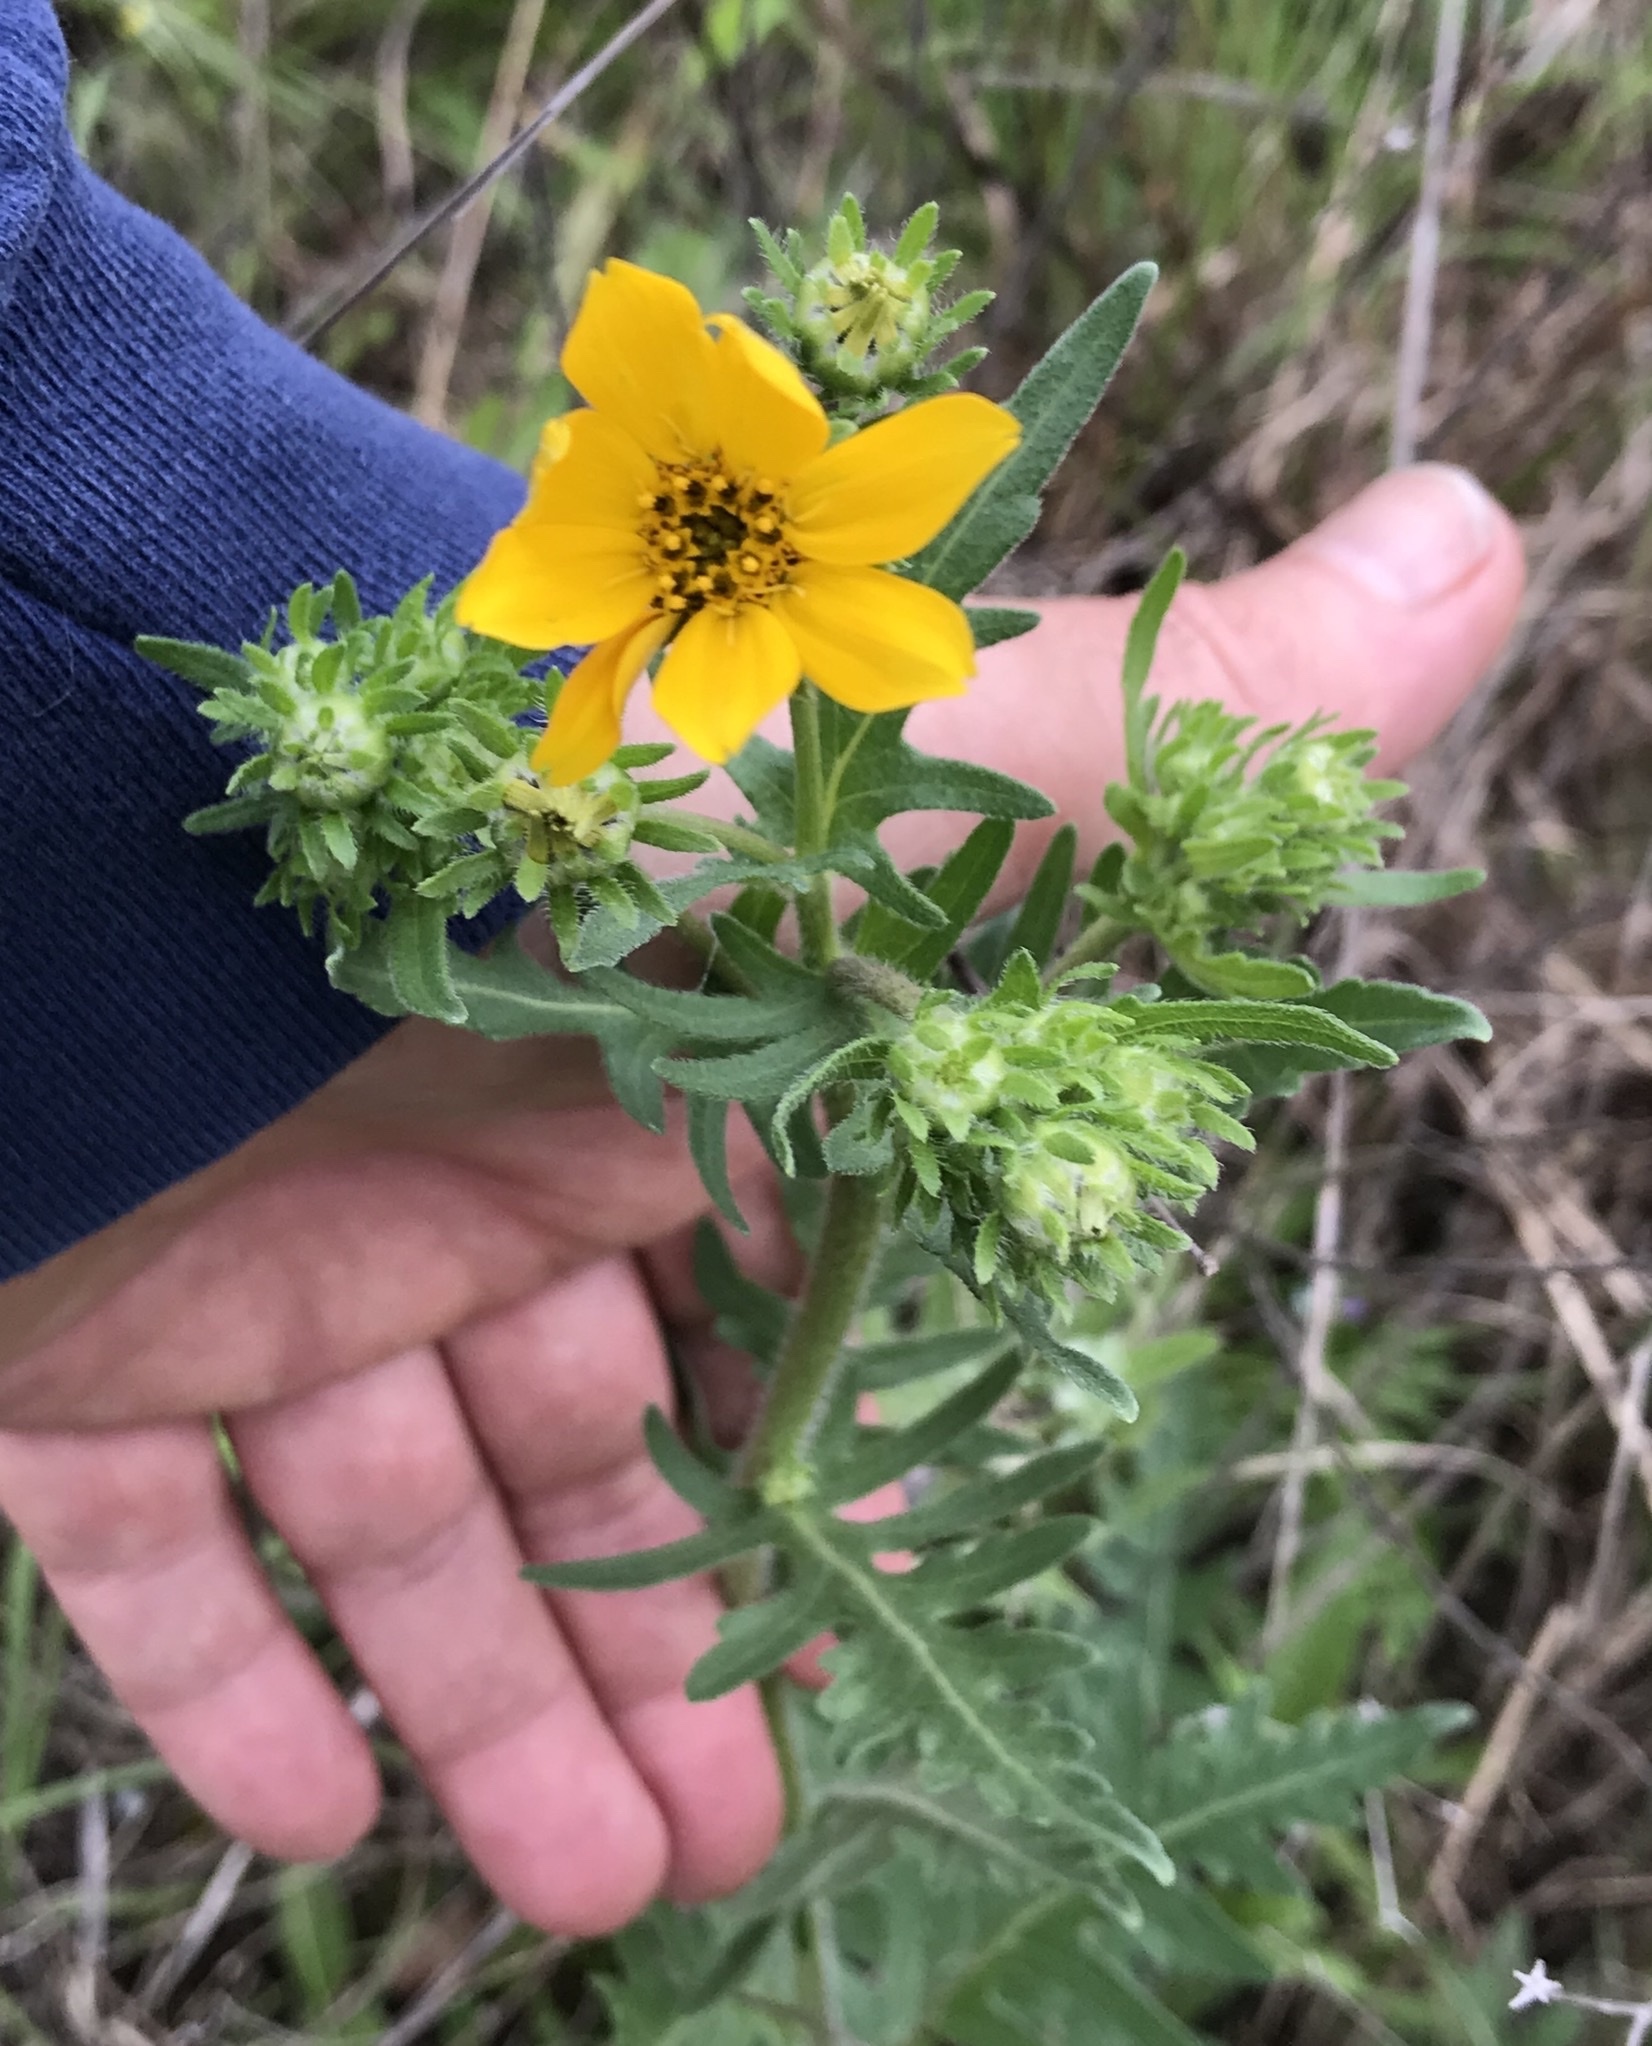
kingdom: Plantae
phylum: Tracheophyta
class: Magnoliopsida
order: Asterales
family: Asteraceae
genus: Engelmannia
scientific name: Engelmannia peristenia
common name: Engelmann's daisy
